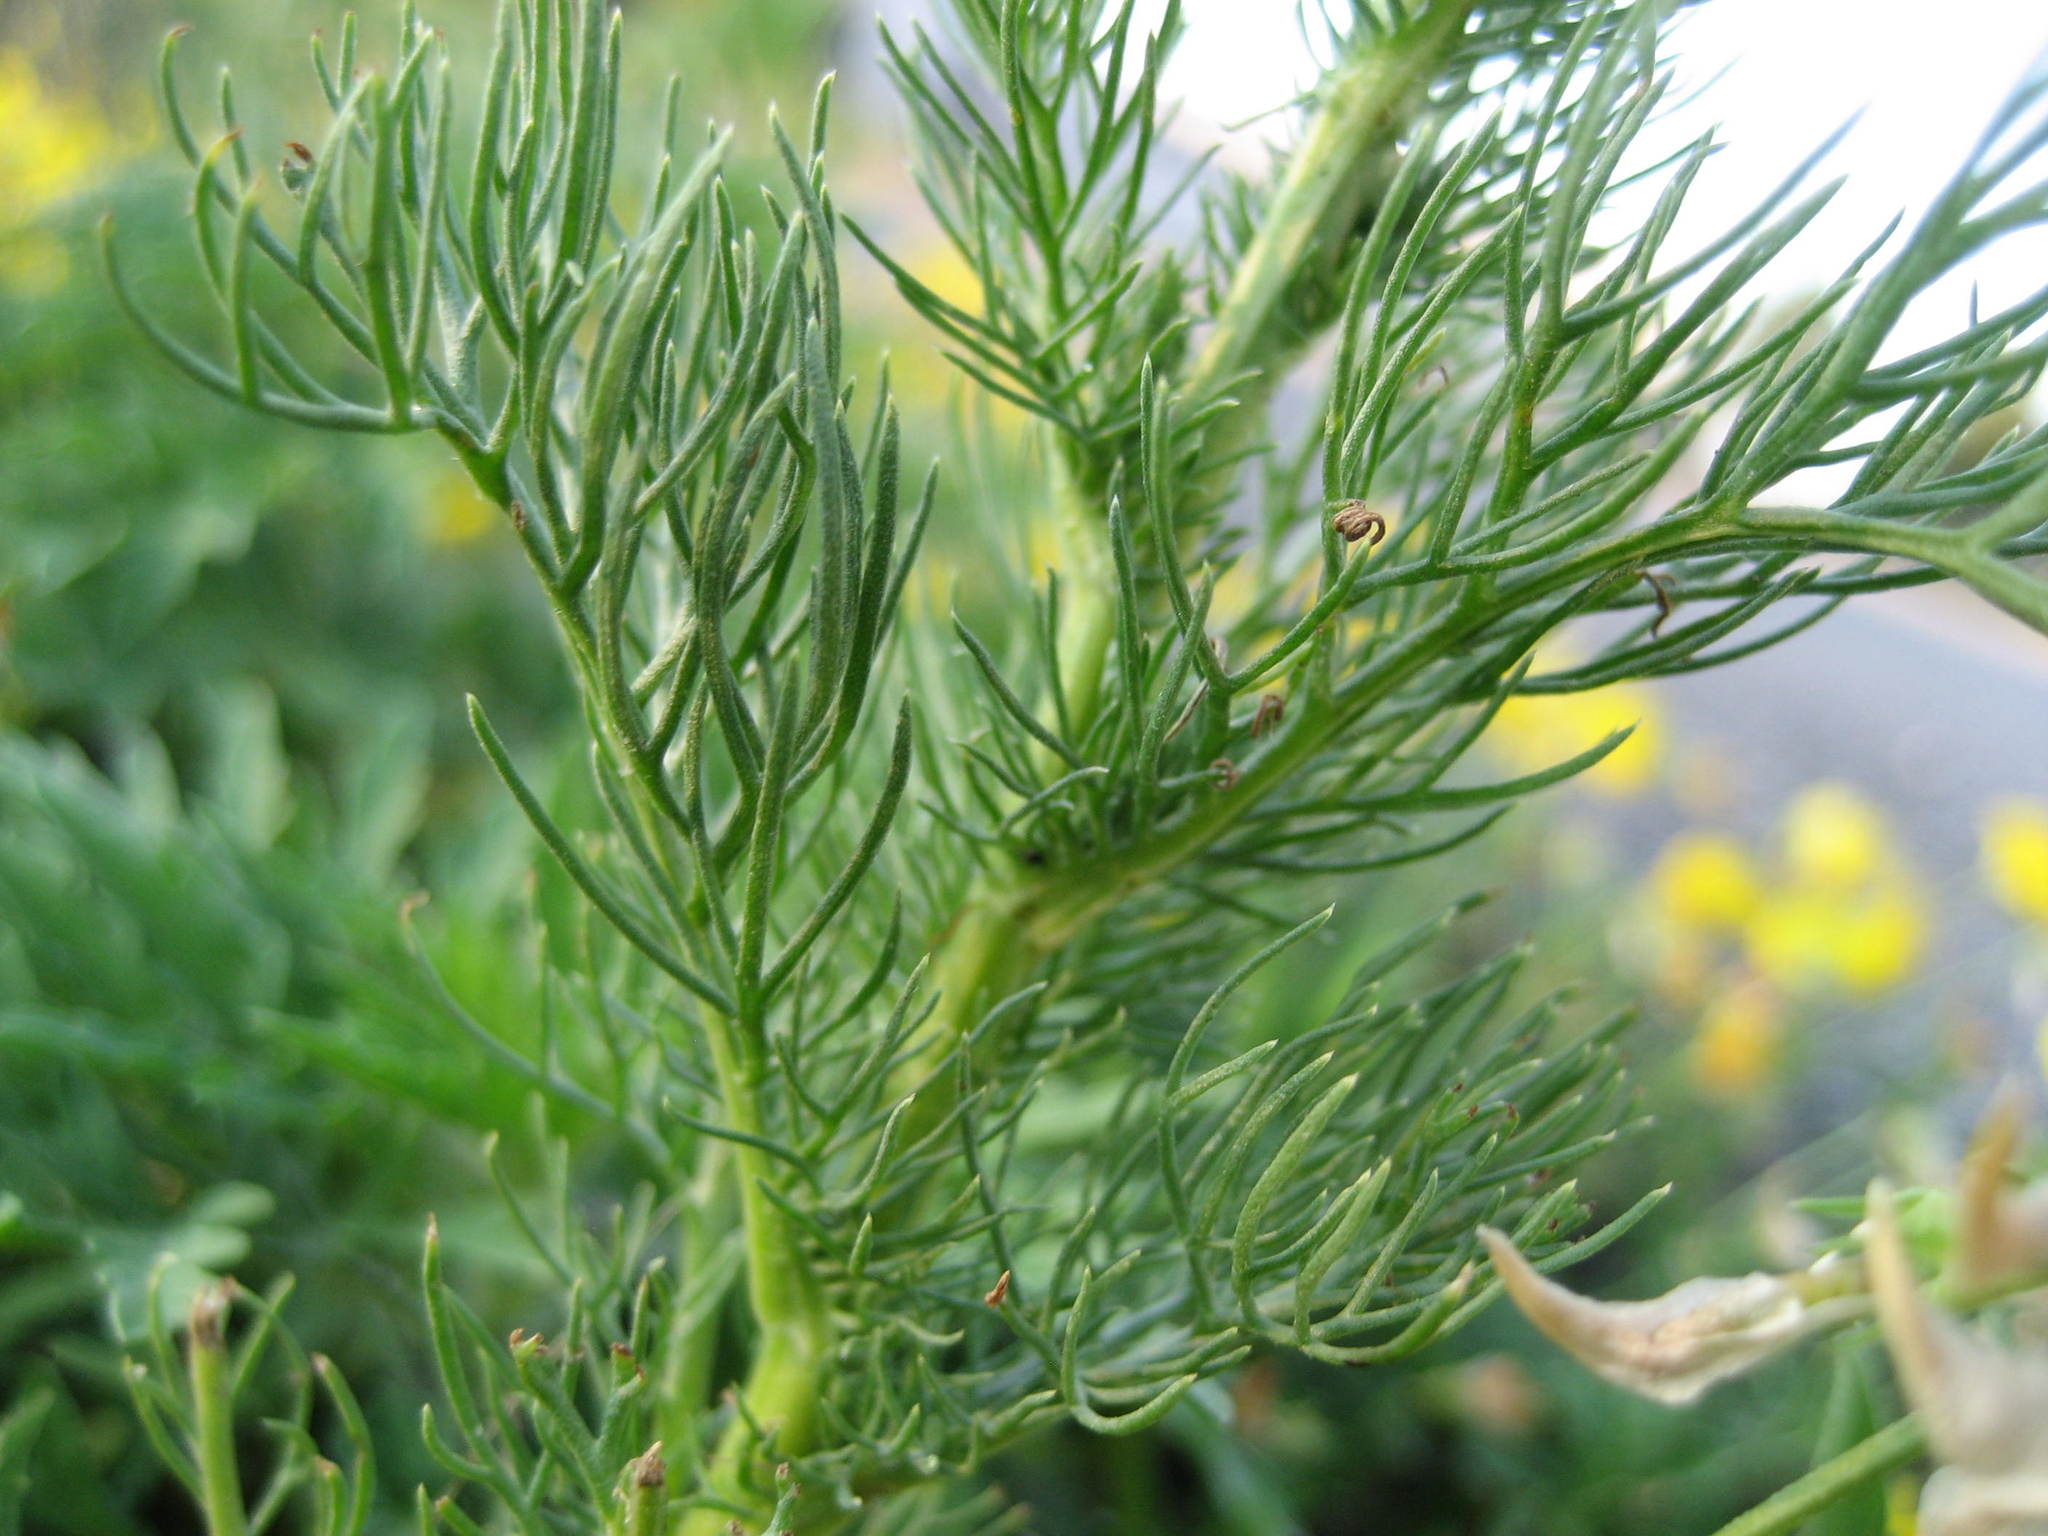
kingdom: Plantae
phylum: Tracheophyta
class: Magnoliopsida
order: Asterales
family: Asteraceae
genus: Tripleurospermum
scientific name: Tripleurospermum inodorum
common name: Scentless mayweed
